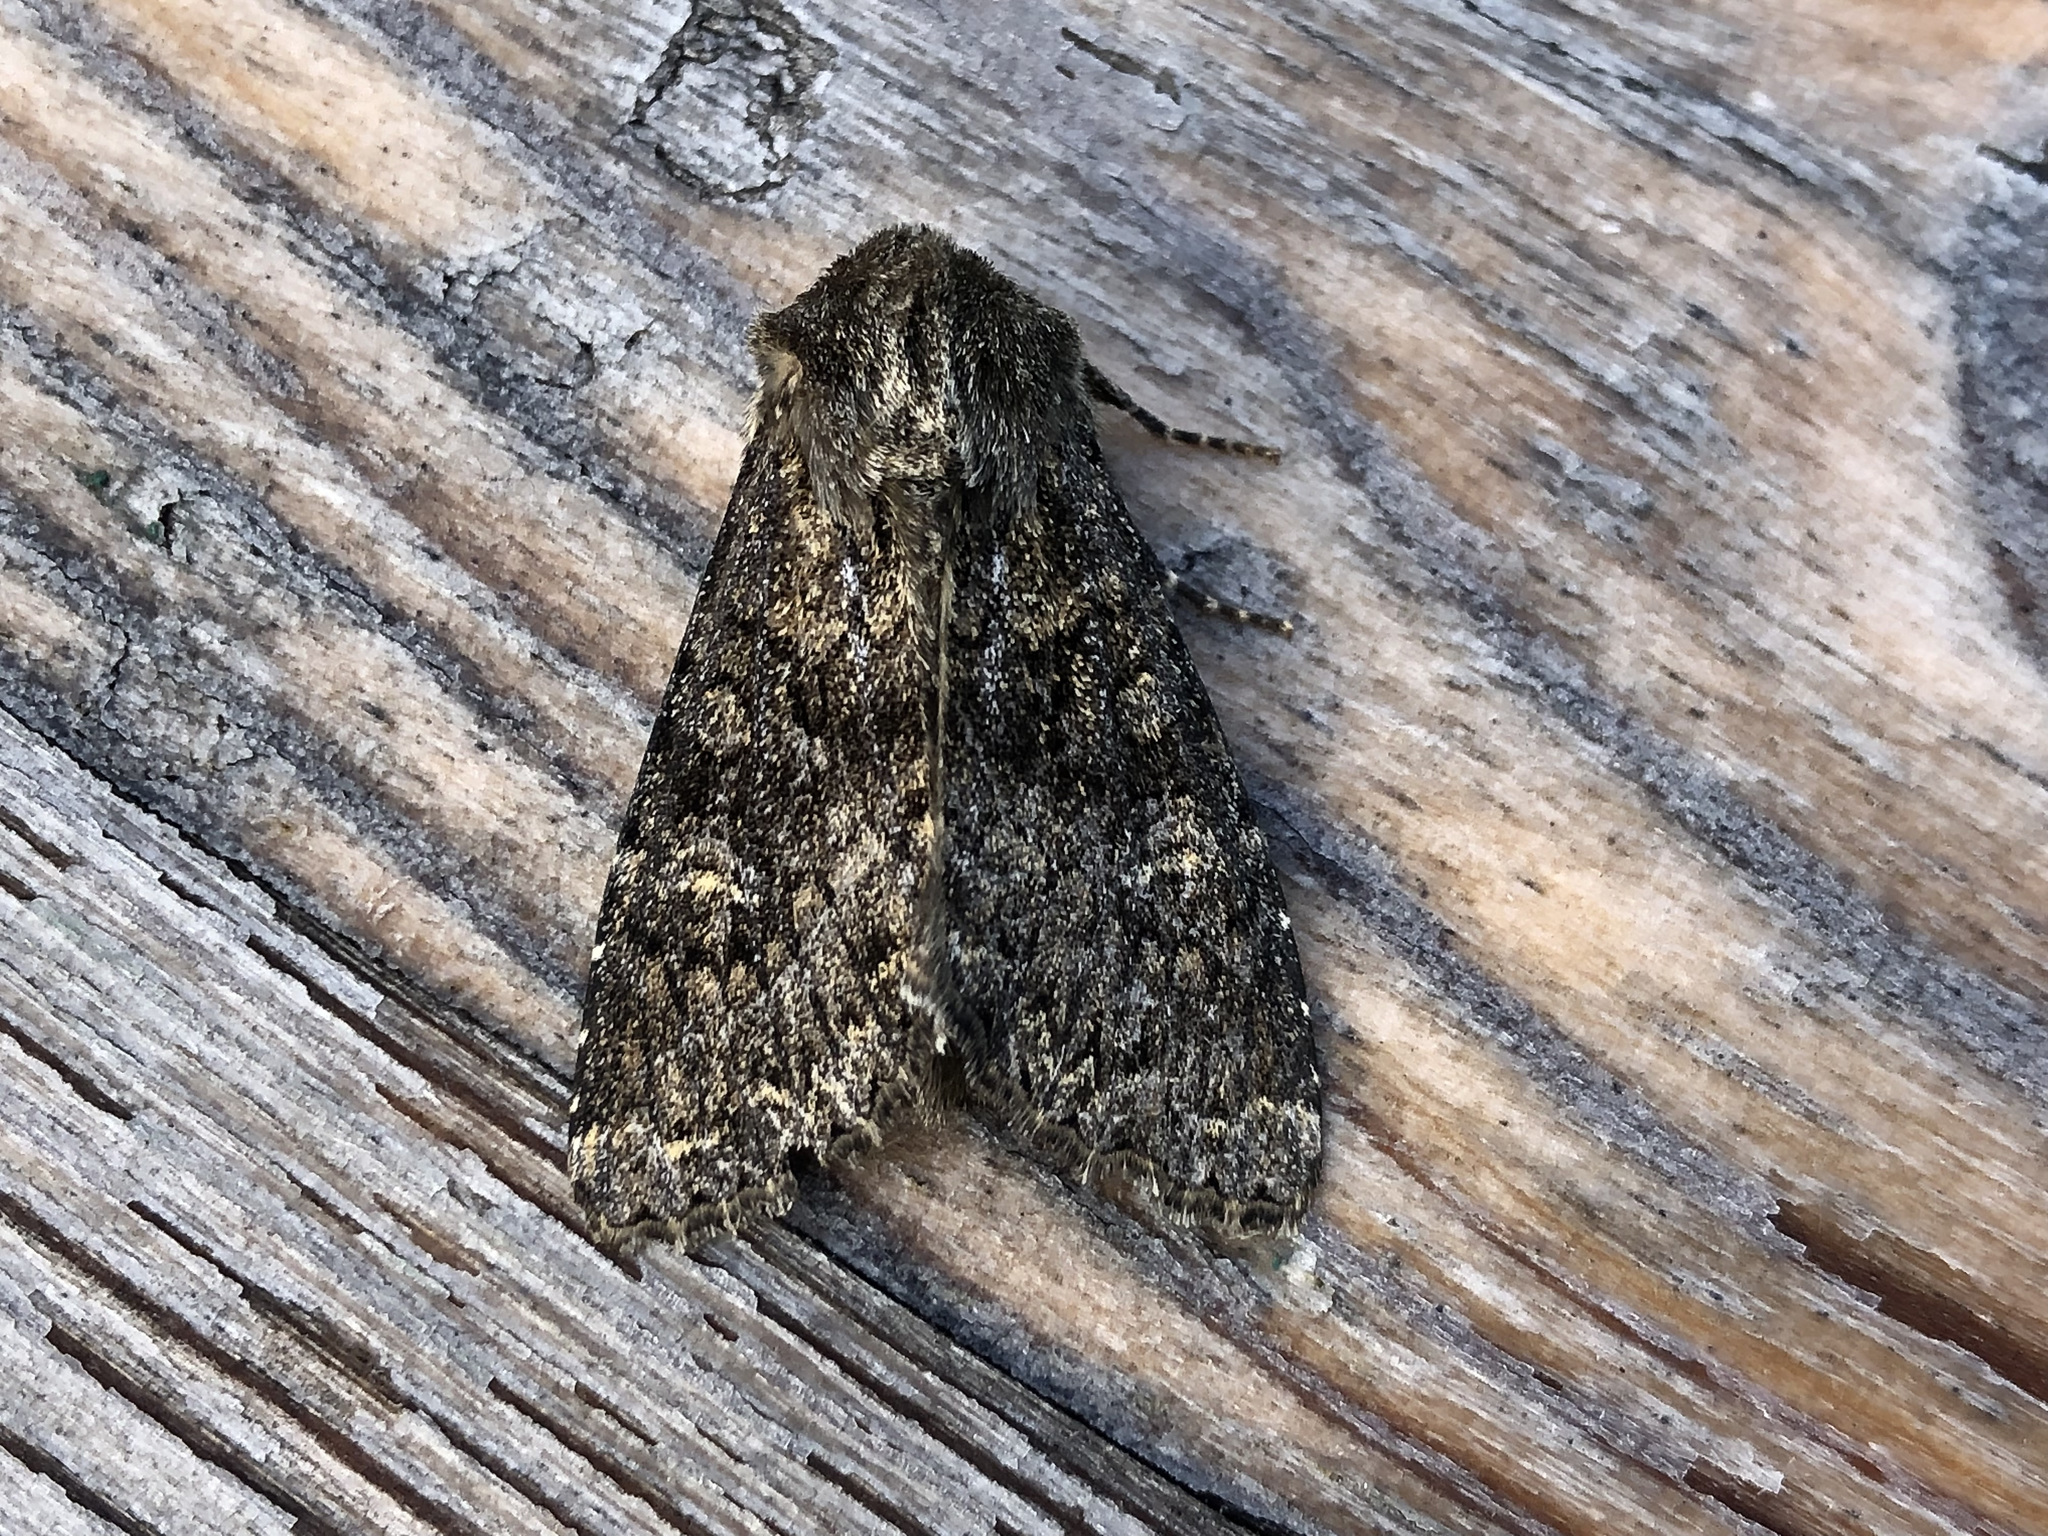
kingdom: Animalia
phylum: Arthropoda
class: Insecta
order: Lepidoptera
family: Noctuidae
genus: Apamea
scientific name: Apamea maillardi
